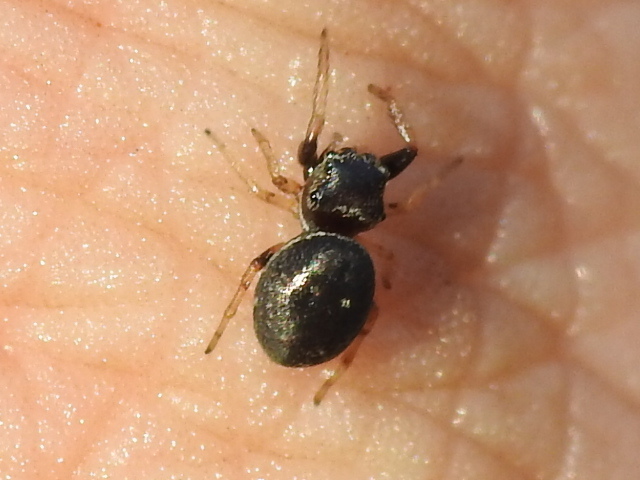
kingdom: Animalia
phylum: Arthropoda
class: Arachnida
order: Araneae
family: Salticidae
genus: Zygoballus
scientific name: Zygoballus sexpunctatus
